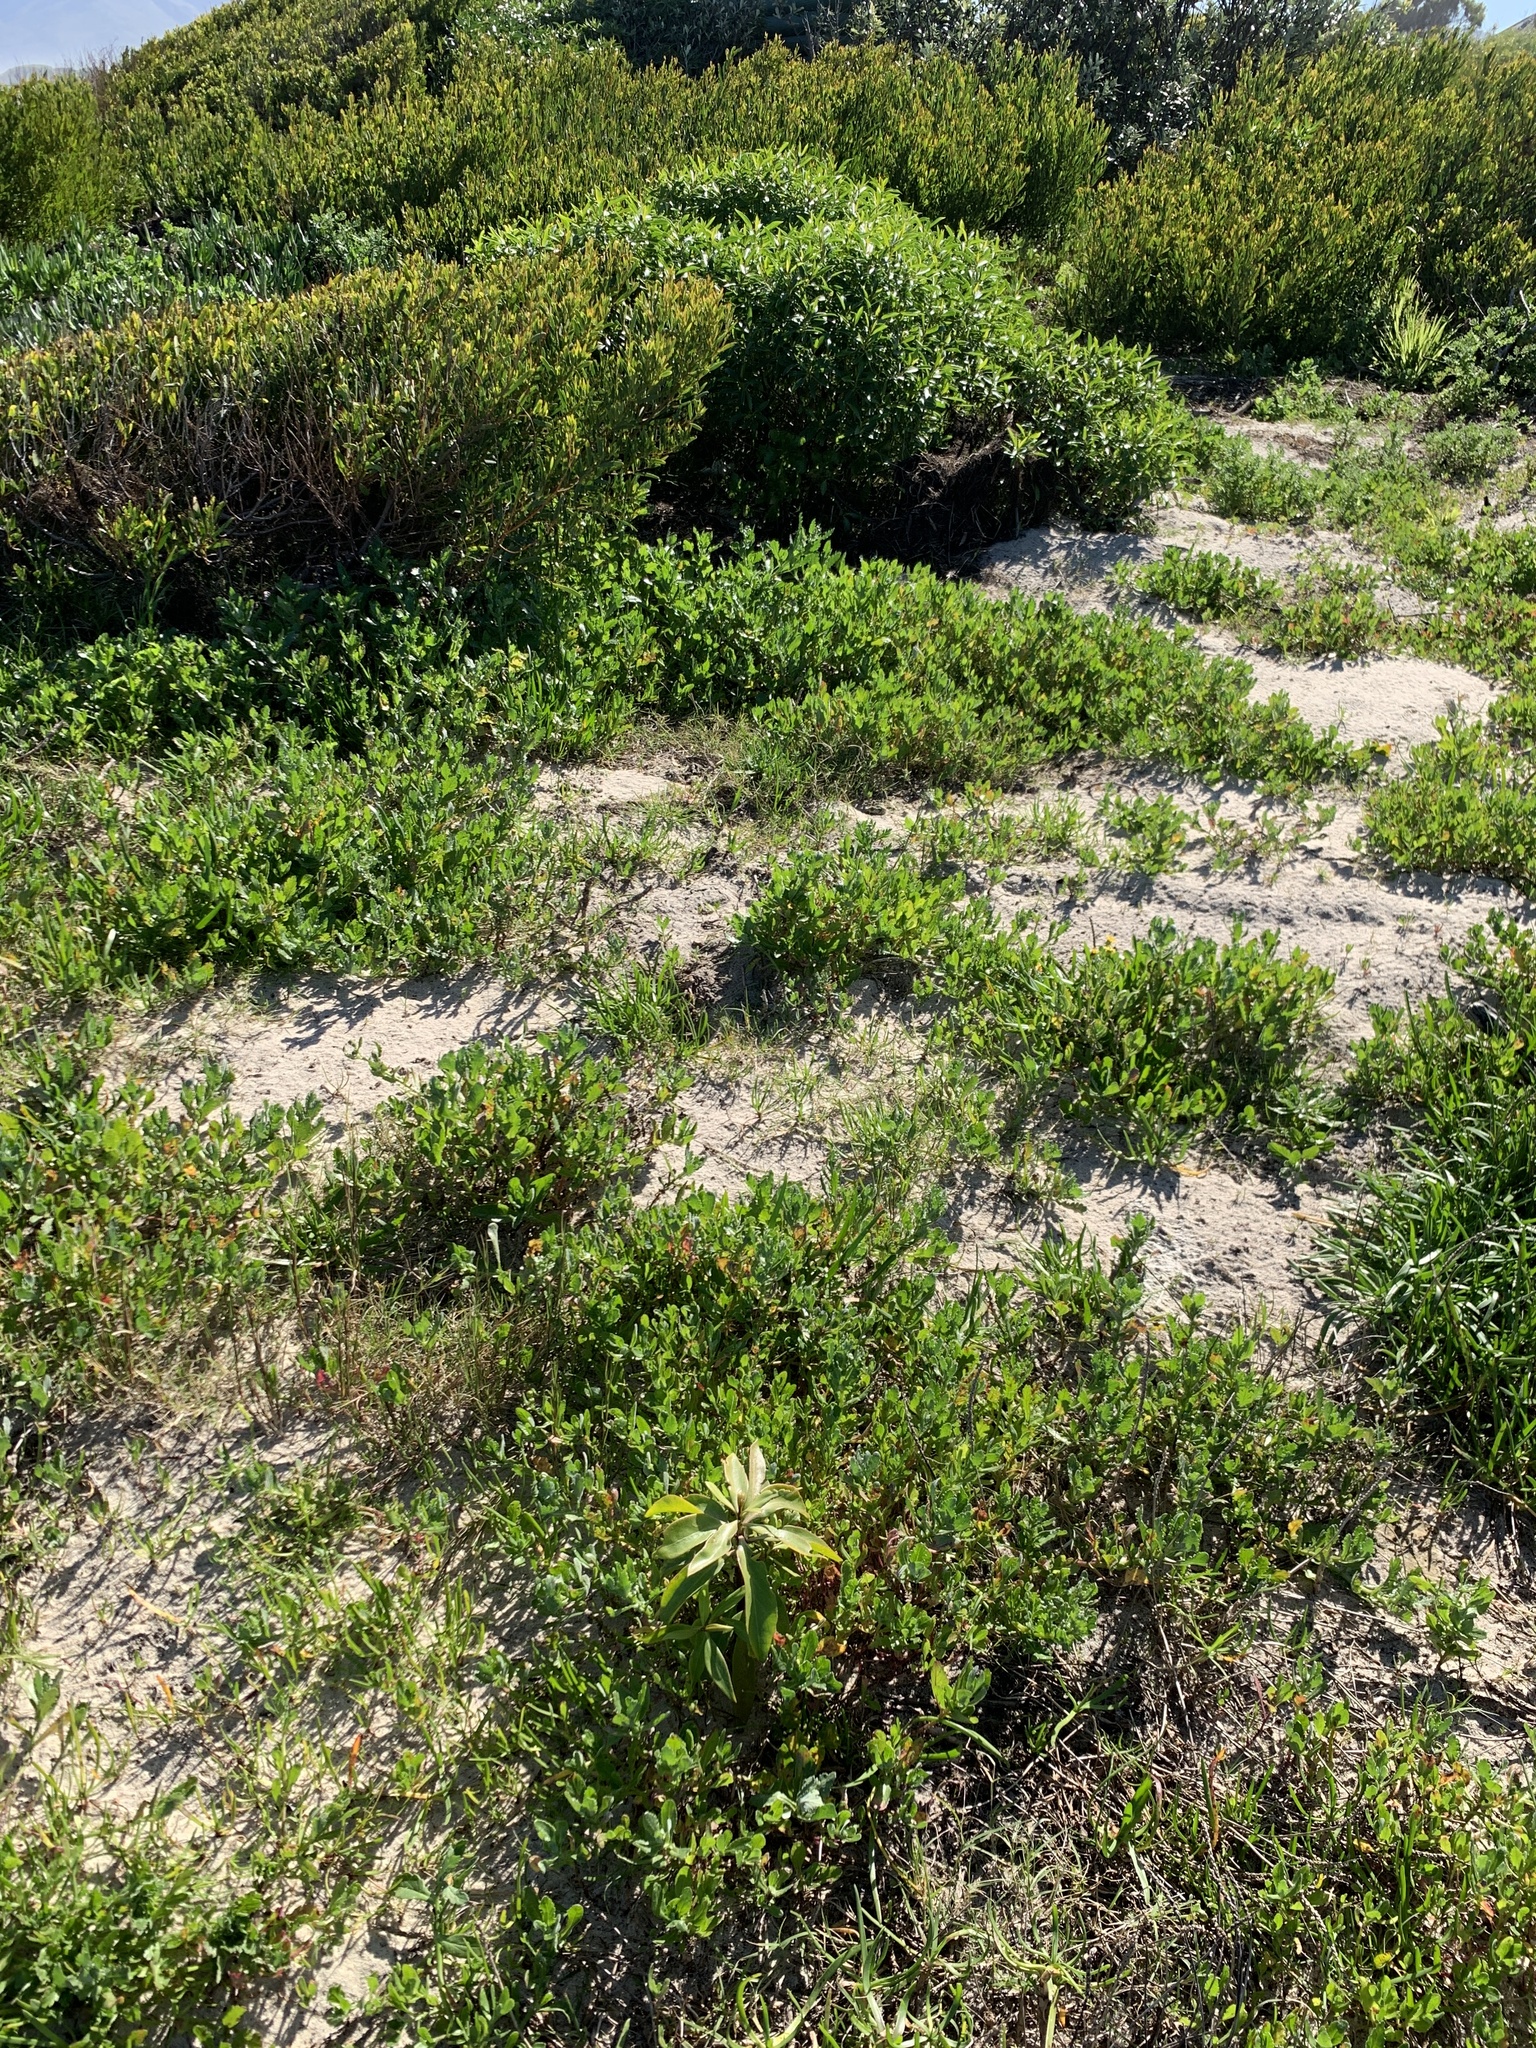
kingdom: Plantae
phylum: Tracheophyta
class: Magnoliopsida
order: Lamiales
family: Scrophulariaceae
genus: Myoporum
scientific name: Myoporum insulare
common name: Common boobialla
